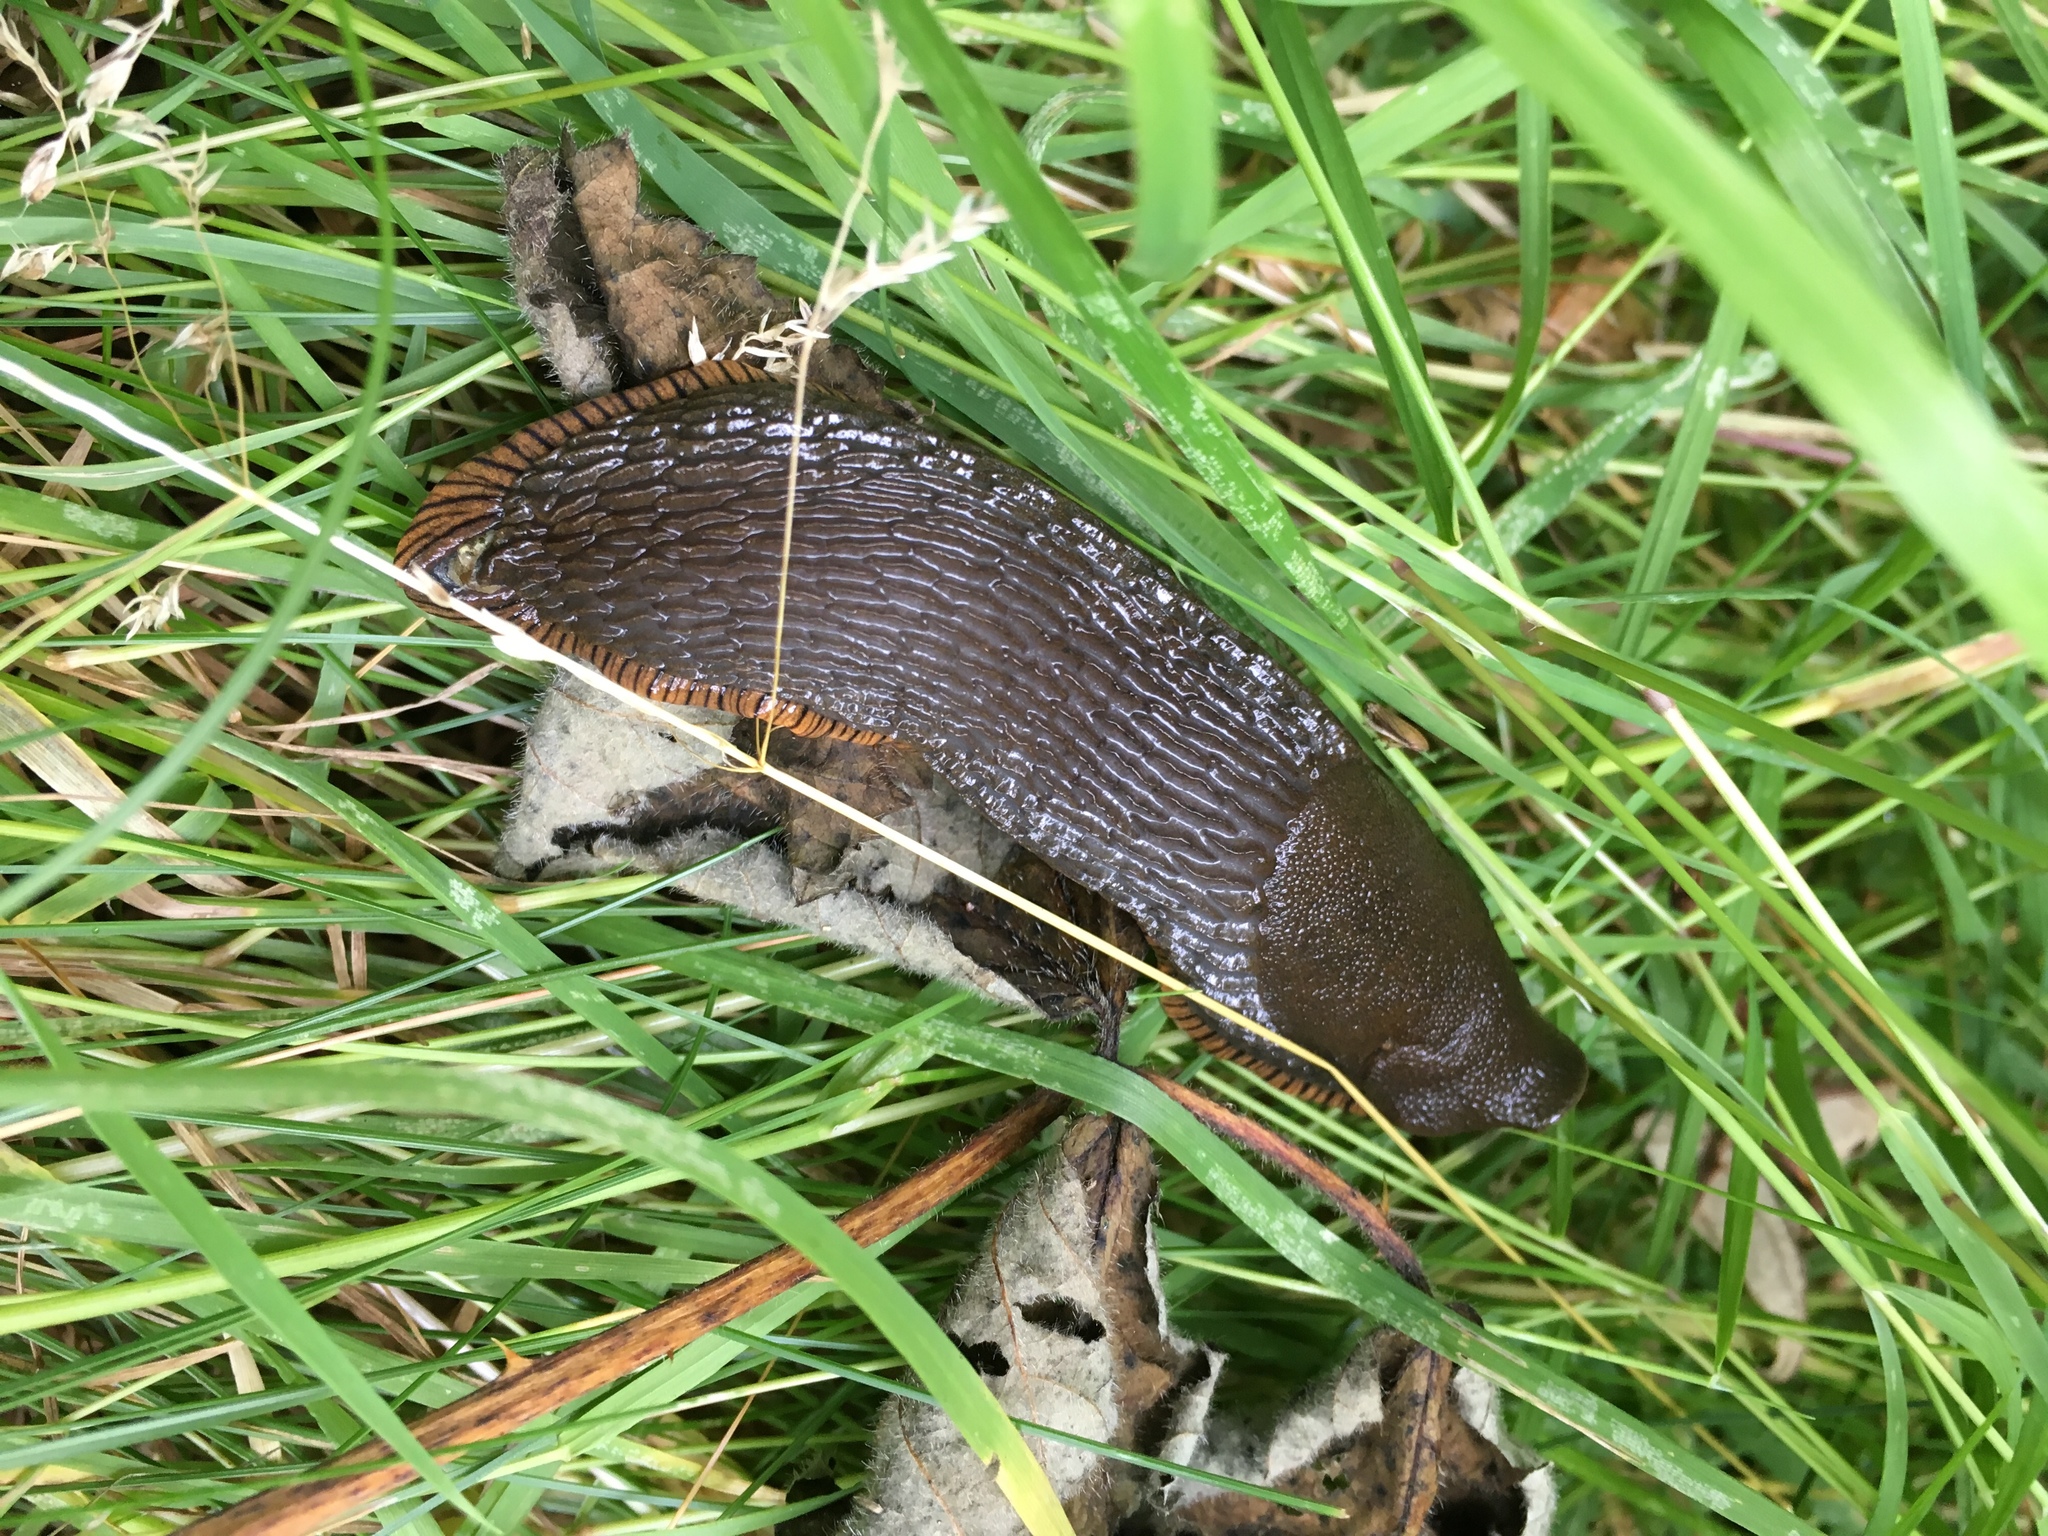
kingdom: Animalia
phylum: Mollusca
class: Gastropoda
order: Stylommatophora
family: Arionidae
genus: Arion
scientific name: Arion rufus
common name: Chocolate arion
